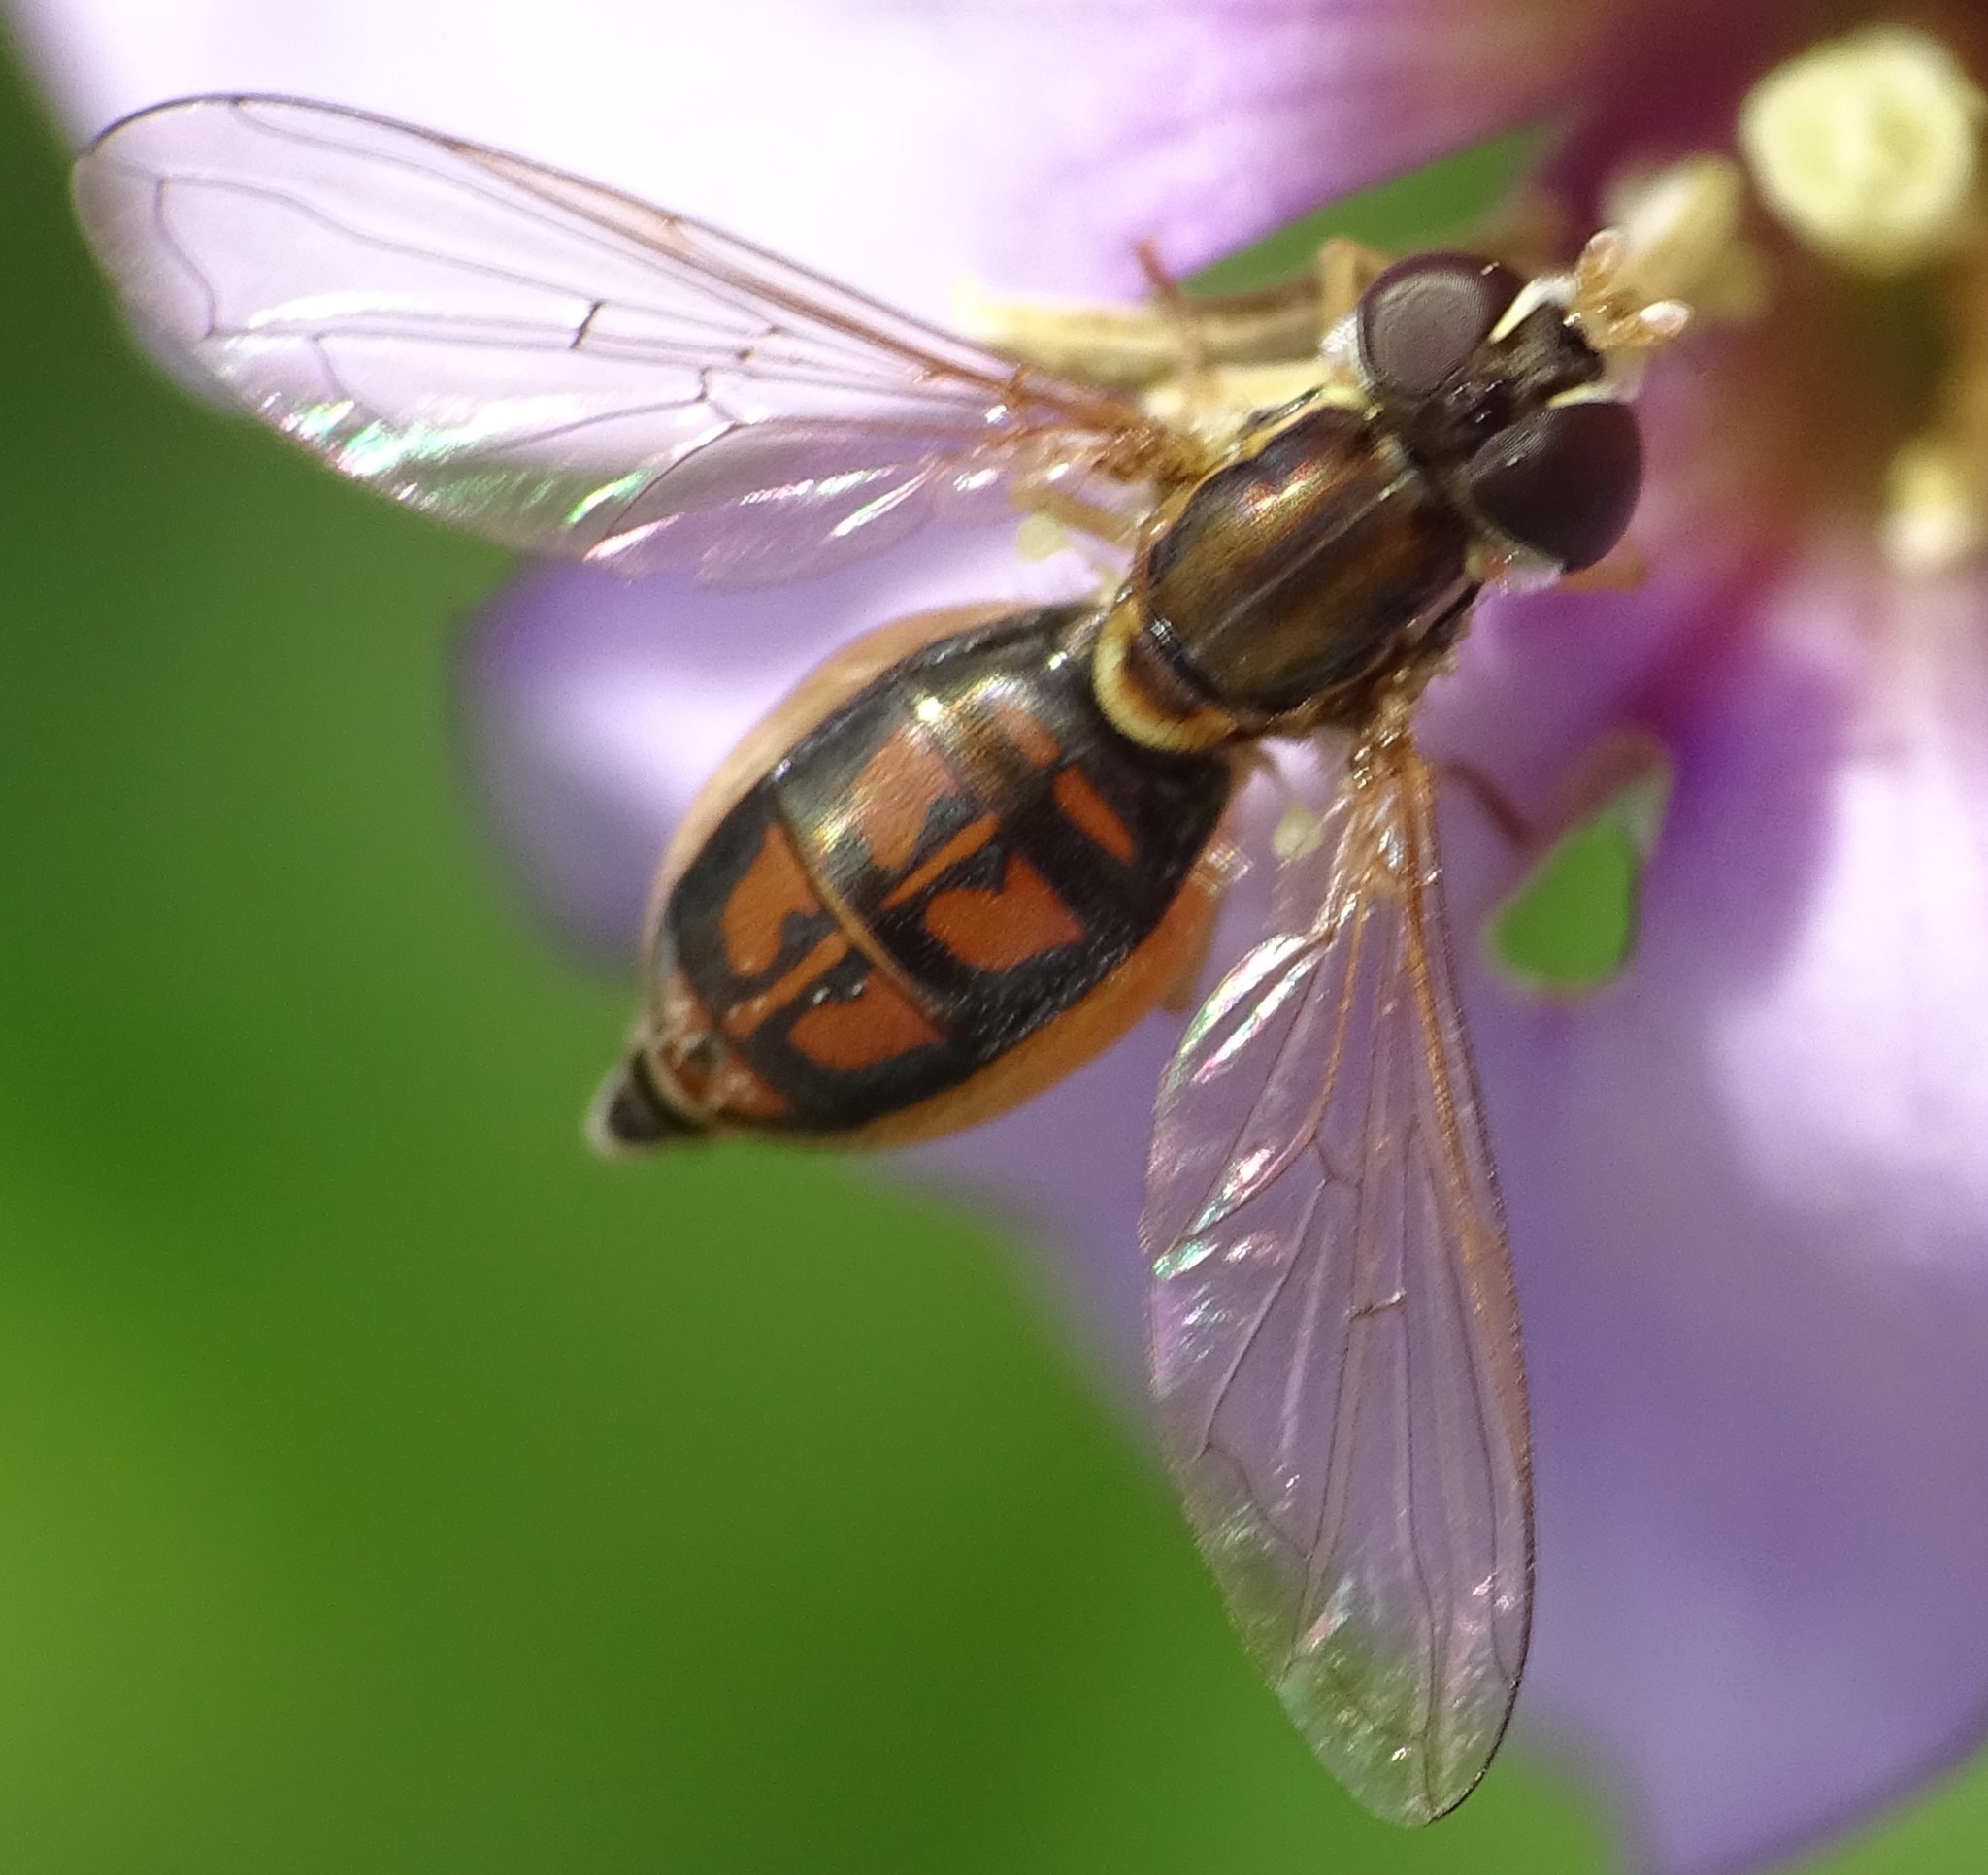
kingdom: Animalia
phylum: Arthropoda
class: Insecta
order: Diptera
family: Syrphidae
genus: Toxomerus
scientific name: Toxomerus marginatus
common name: Syrphid fly
